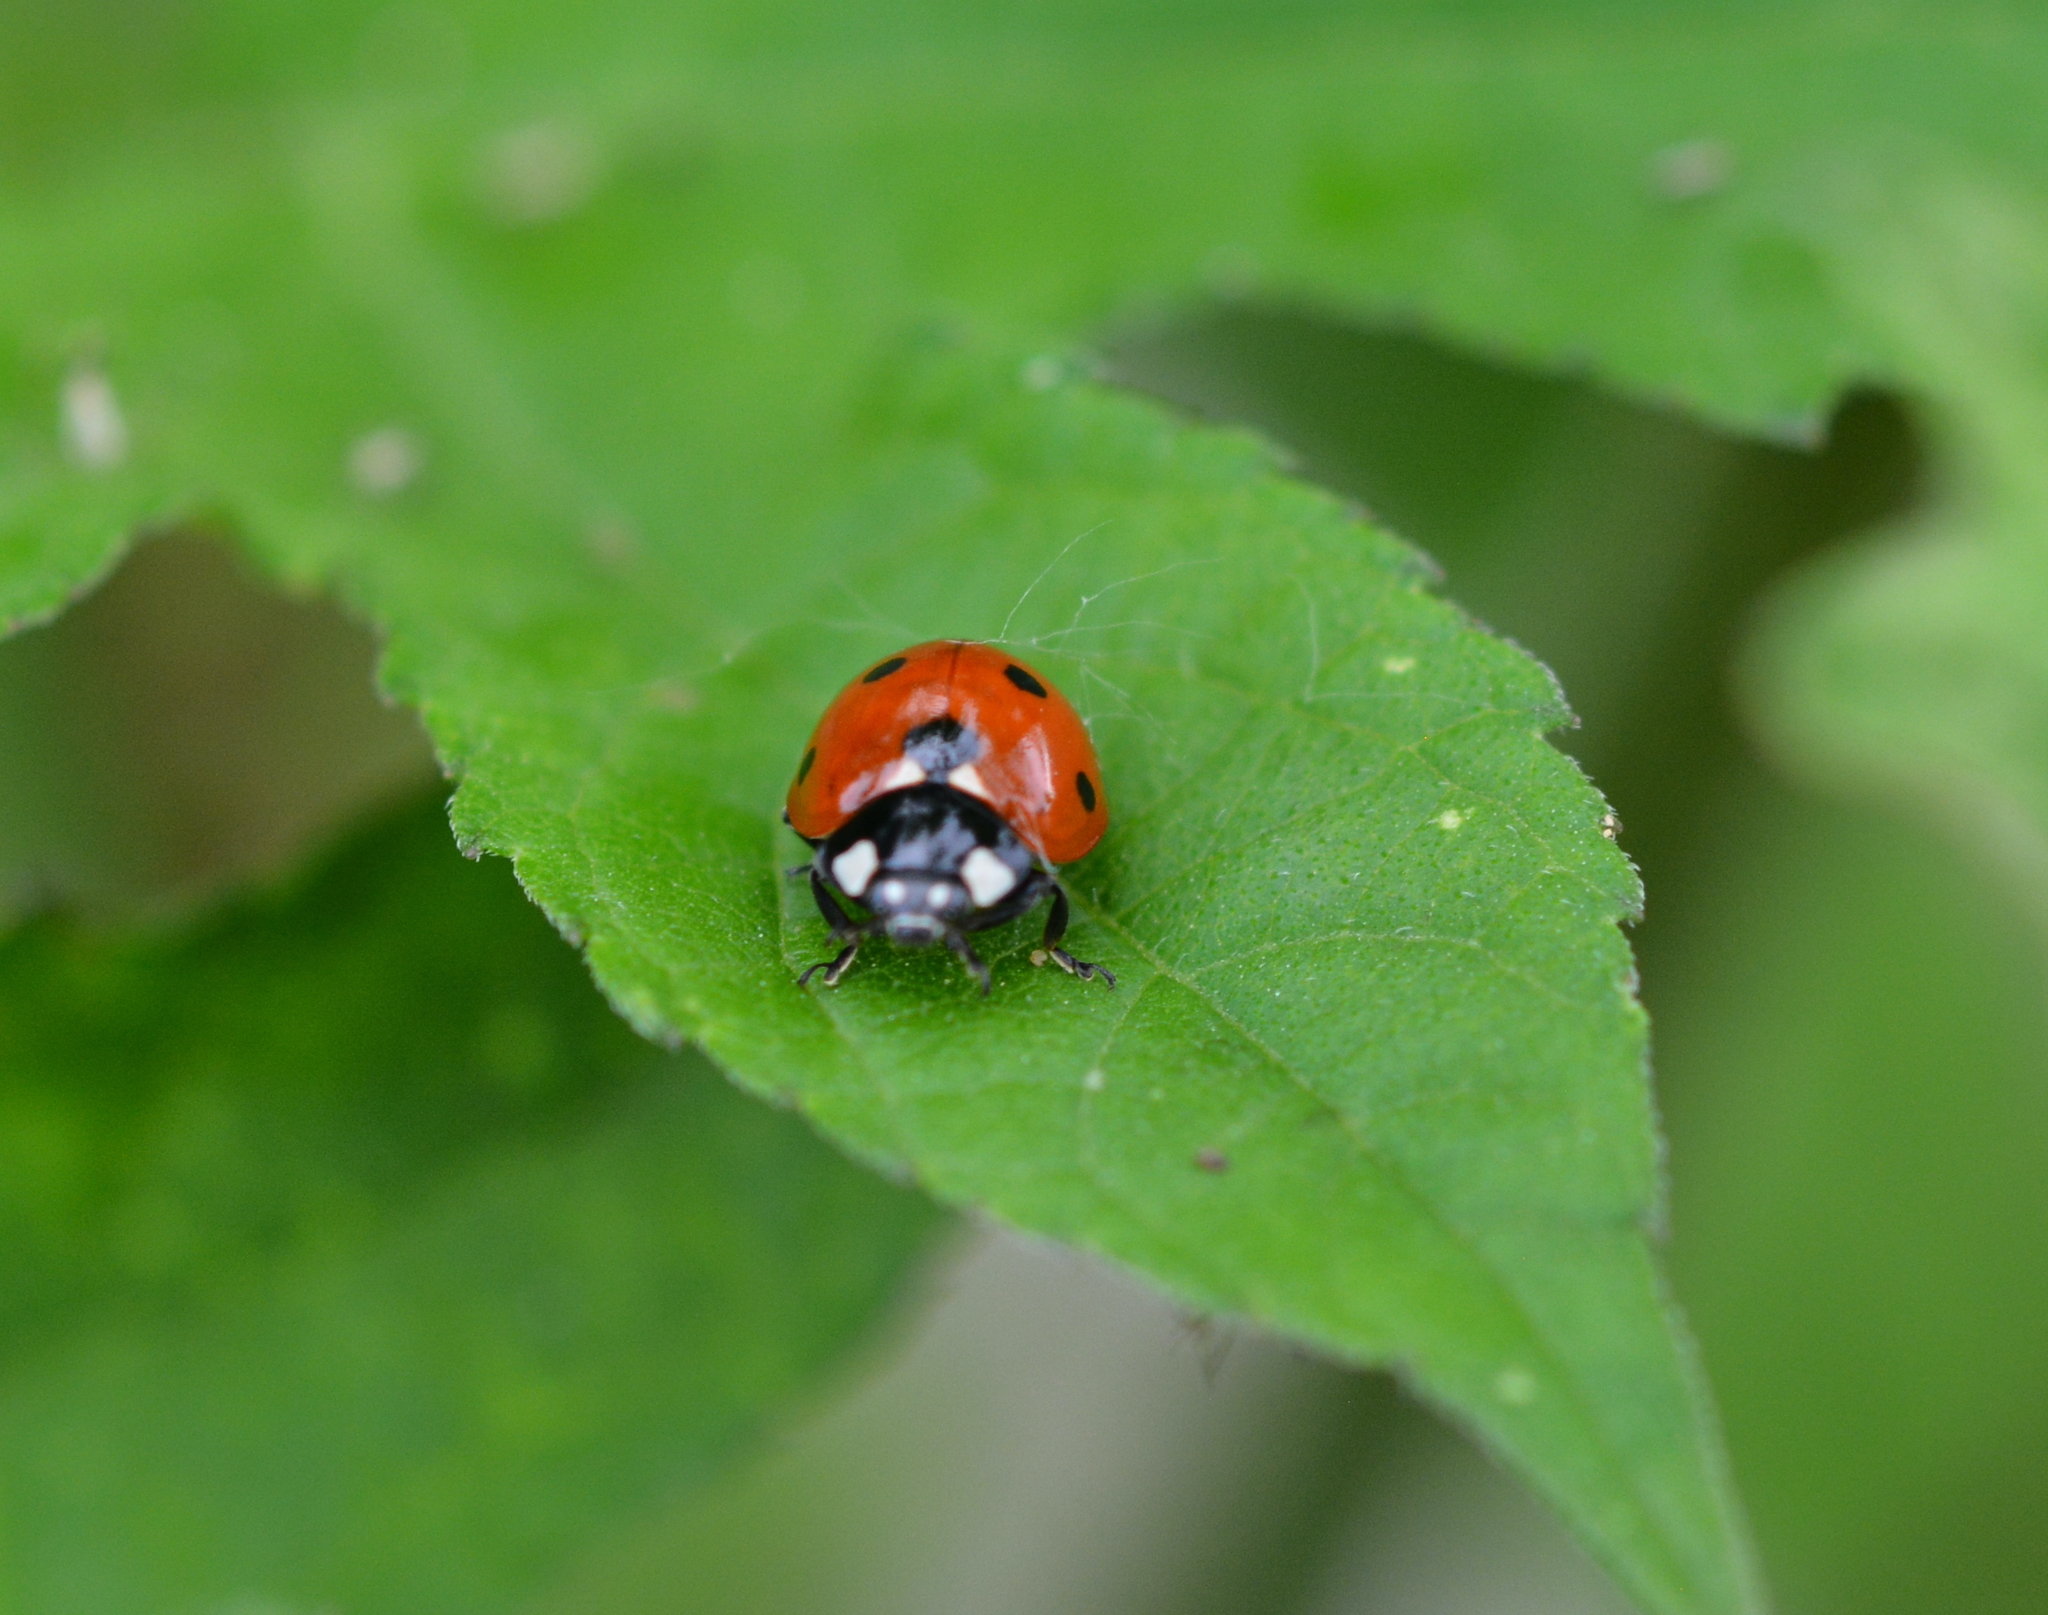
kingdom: Animalia
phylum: Arthropoda
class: Insecta
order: Coleoptera
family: Coccinellidae
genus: Coccinella
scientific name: Coccinella septempunctata
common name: Sevenspotted lady beetle
